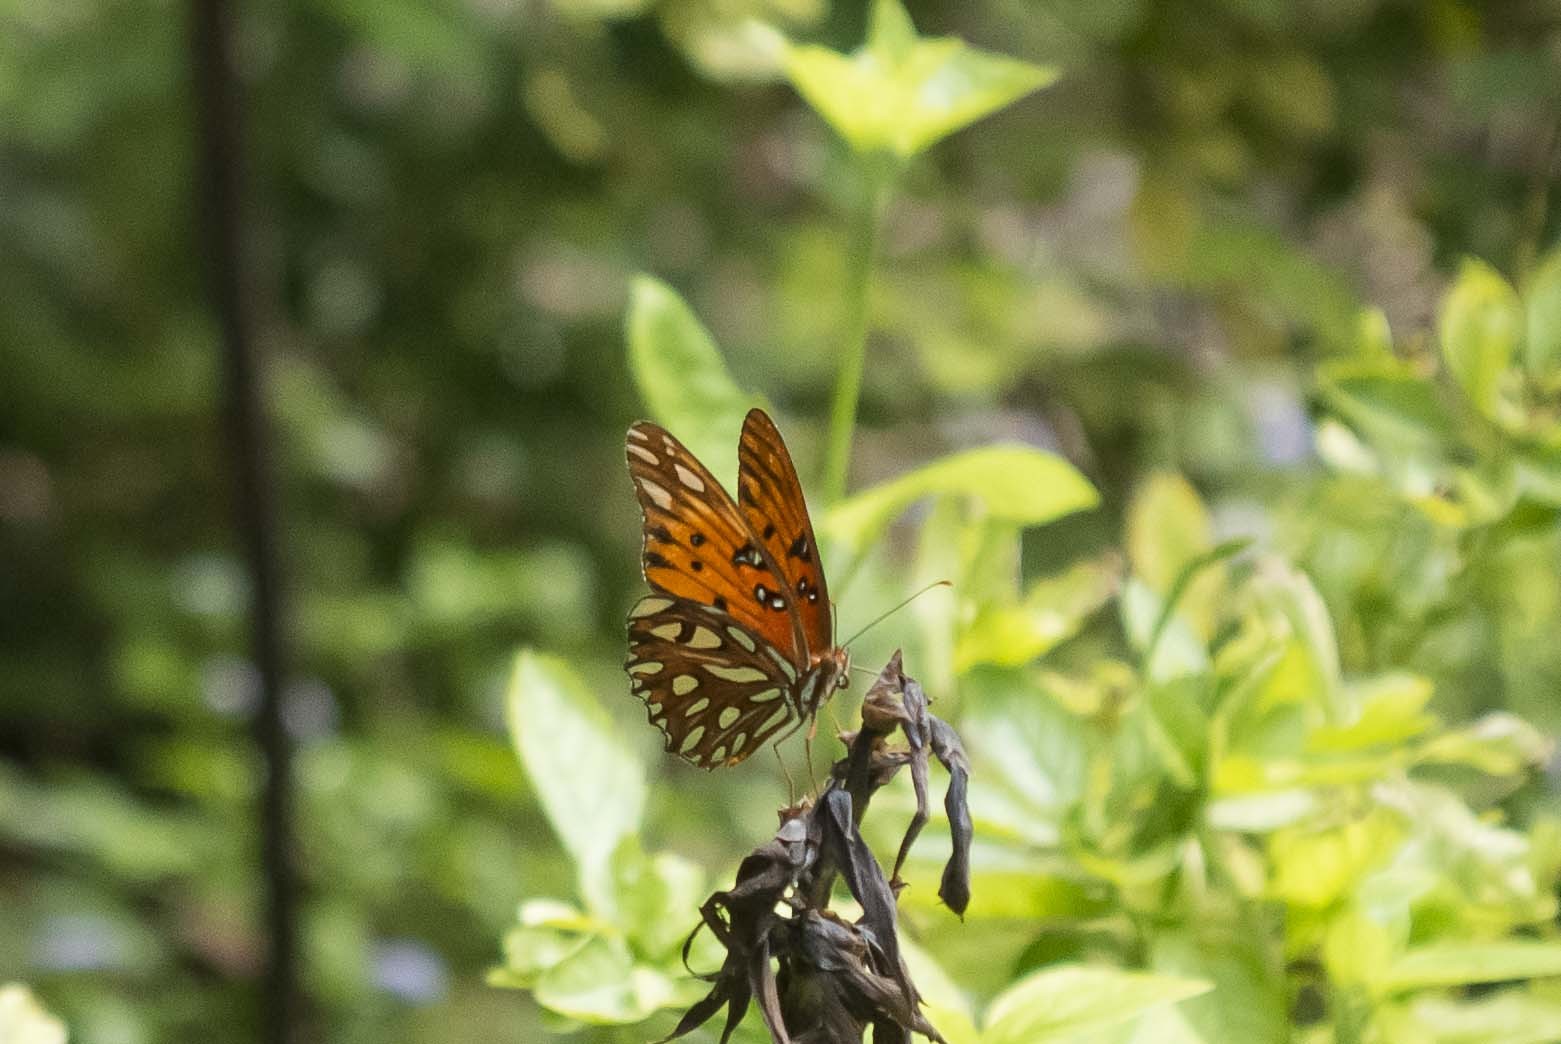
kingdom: Animalia
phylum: Arthropoda
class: Insecta
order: Lepidoptera
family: Nymphalidae
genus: Dione
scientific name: Dione vanillae
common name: Gulf fritillary
